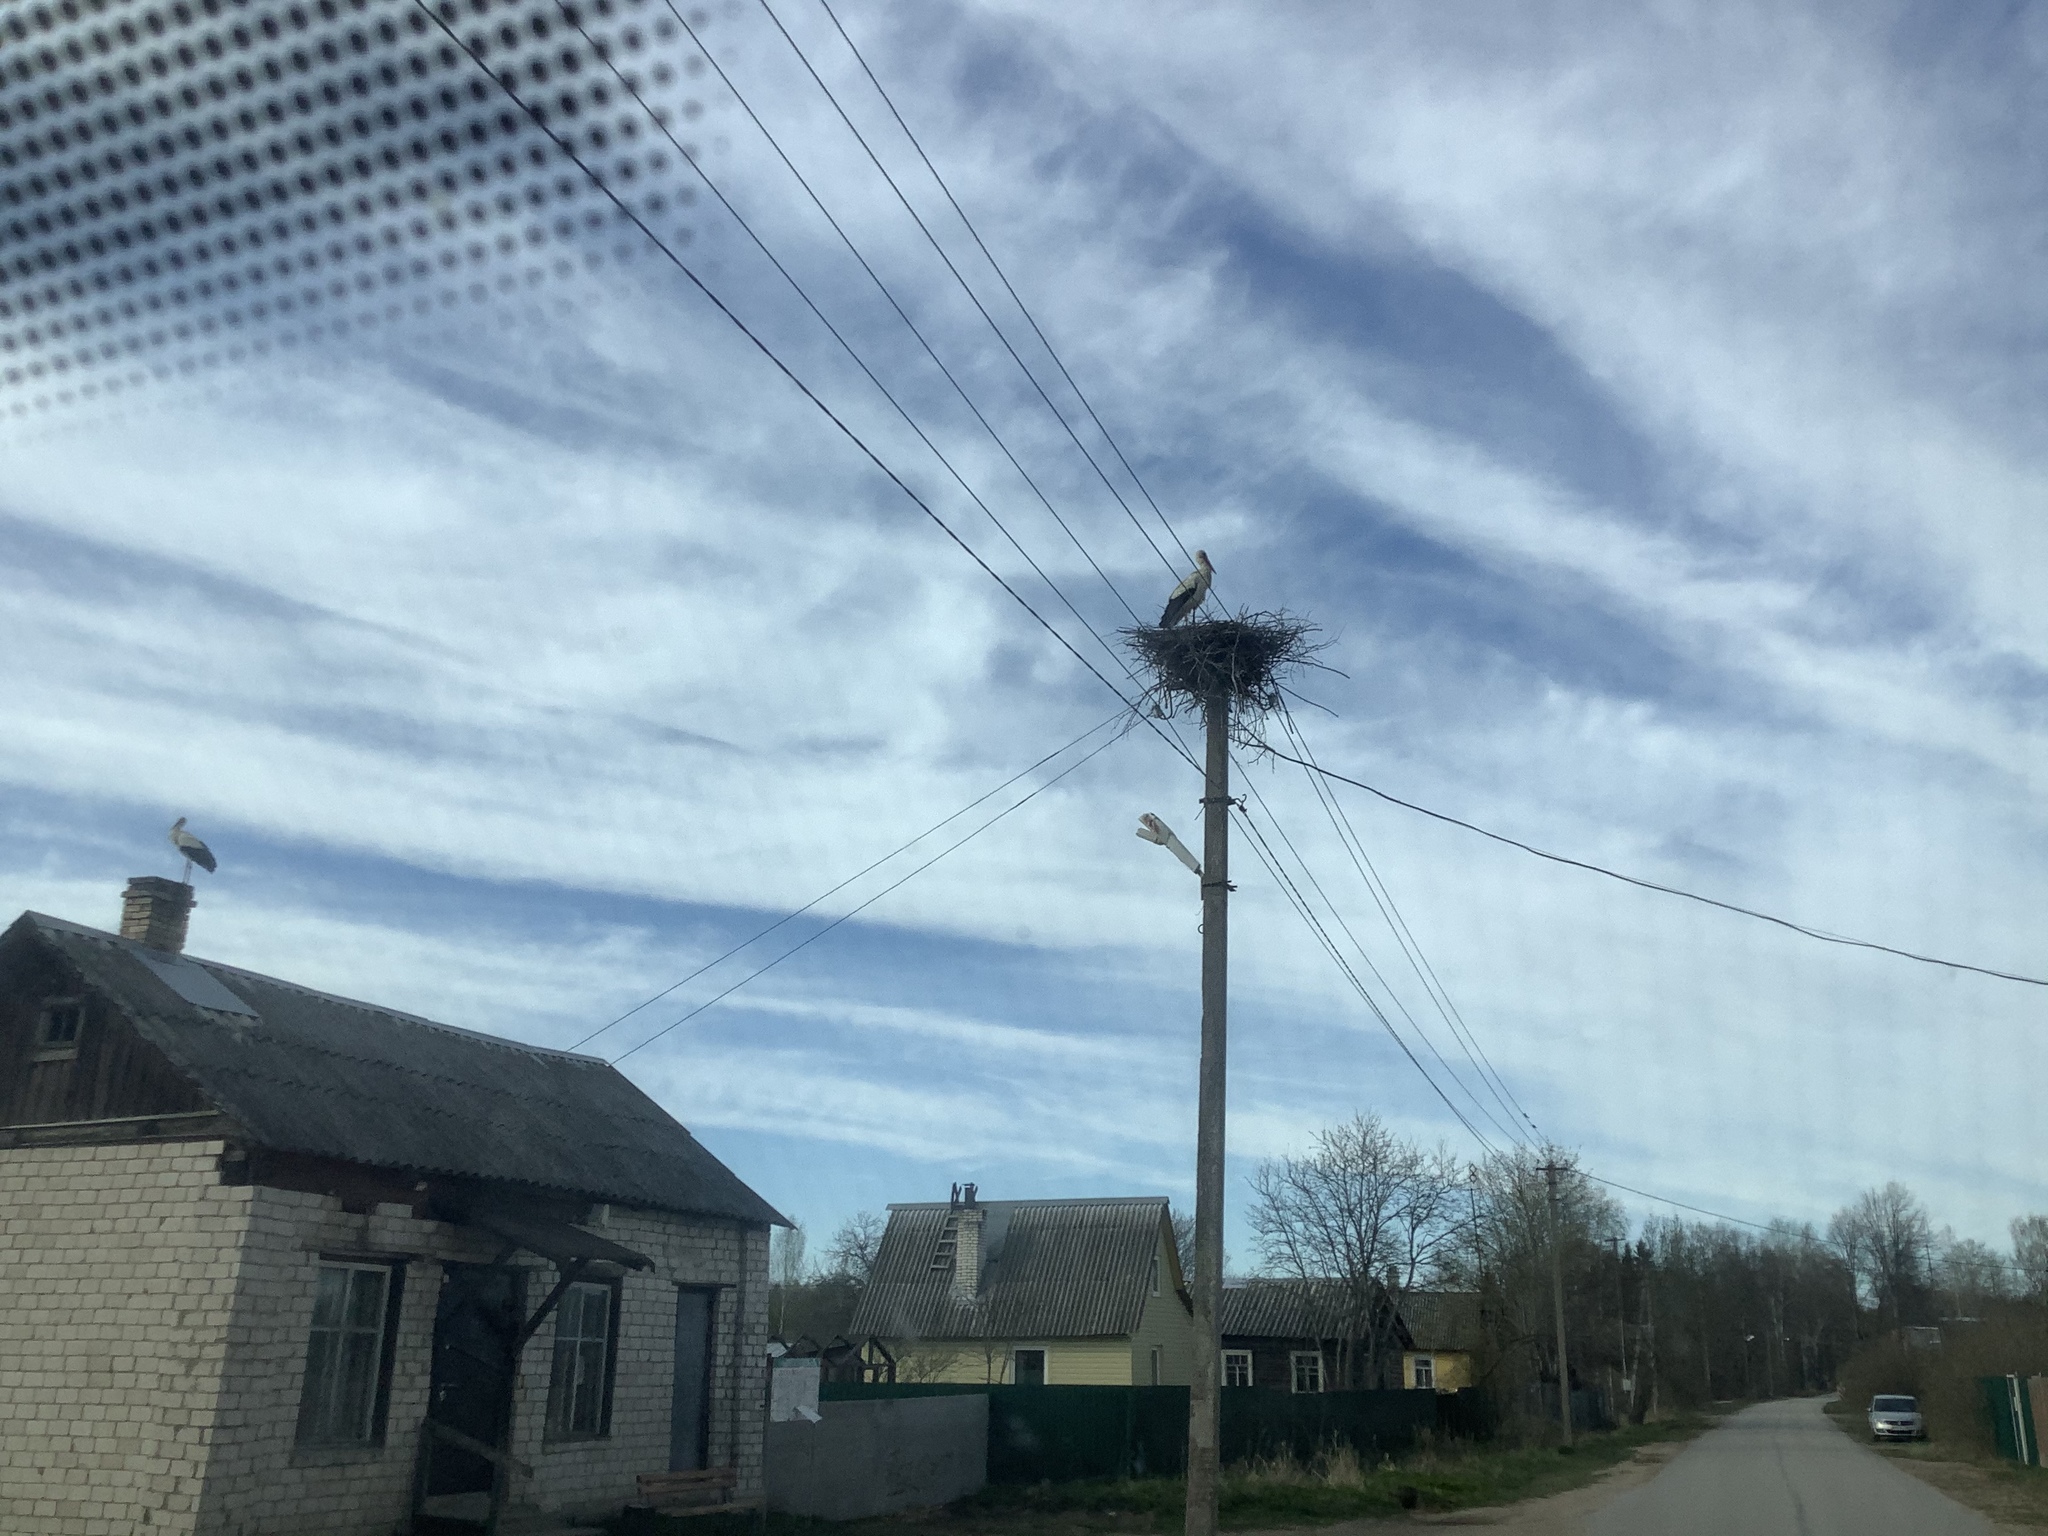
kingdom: Animalia
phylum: Chordata
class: Aves
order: Ciconiiformes
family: Ciconiidae
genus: Ciconia
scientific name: Ciconia ciconia
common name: White stork
